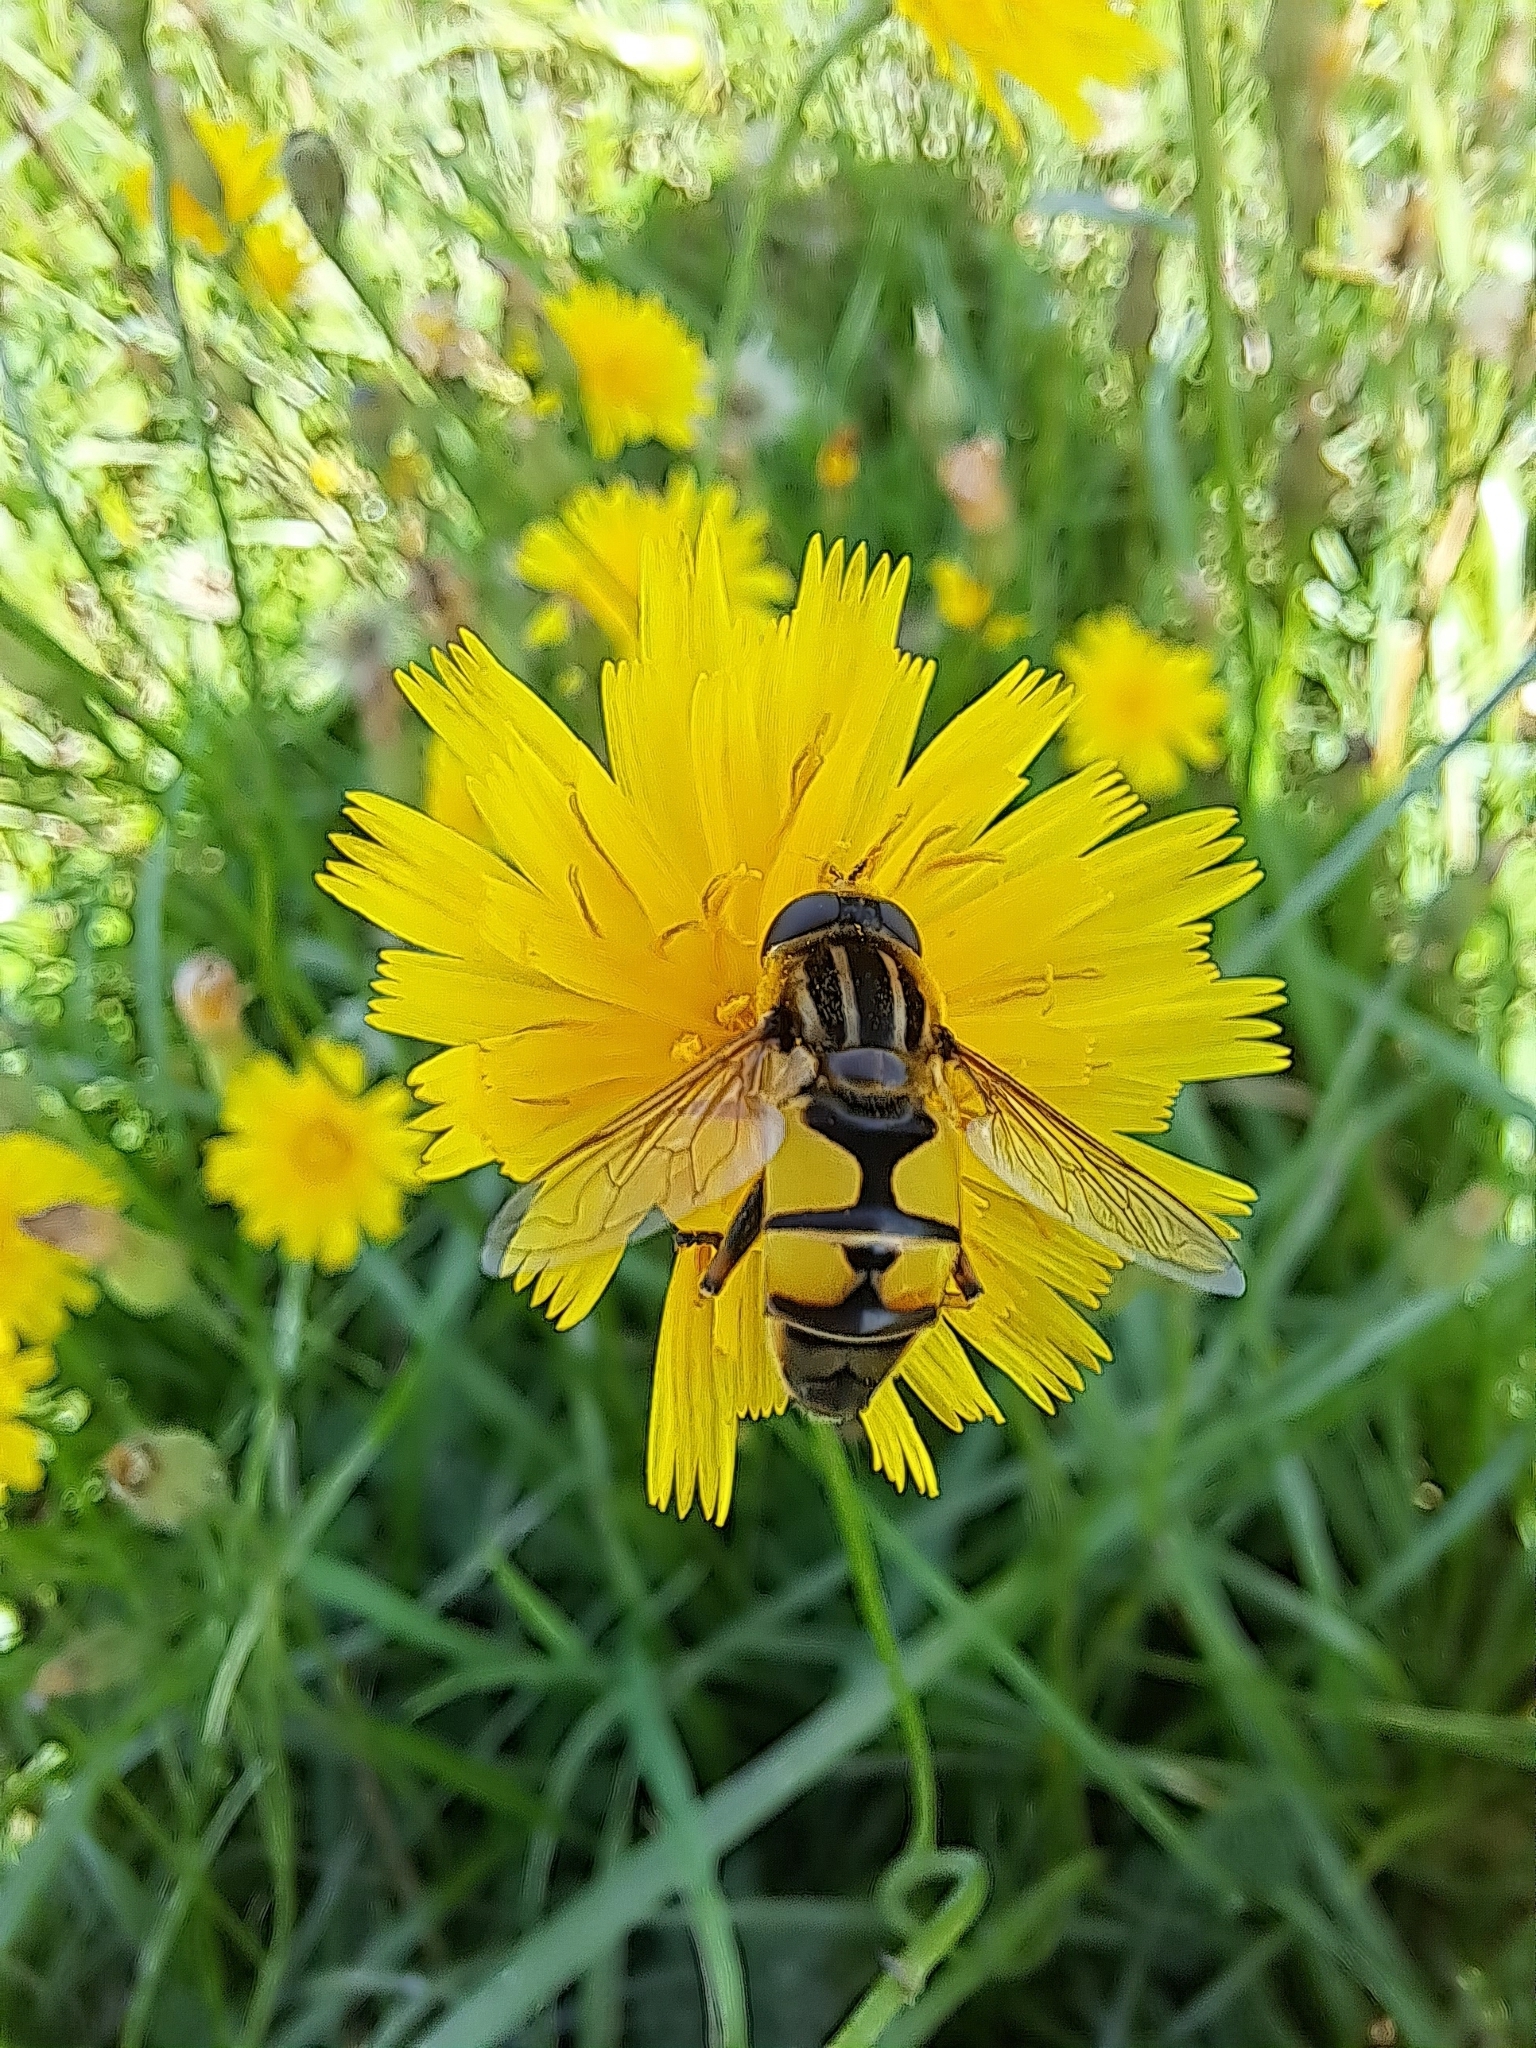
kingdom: Animalia
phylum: Arthropoda
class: Insecta
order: Diptera
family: Syrphidae
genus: Helophilus
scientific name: Helophilus latifrons
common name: Broad-headed marsh fly
